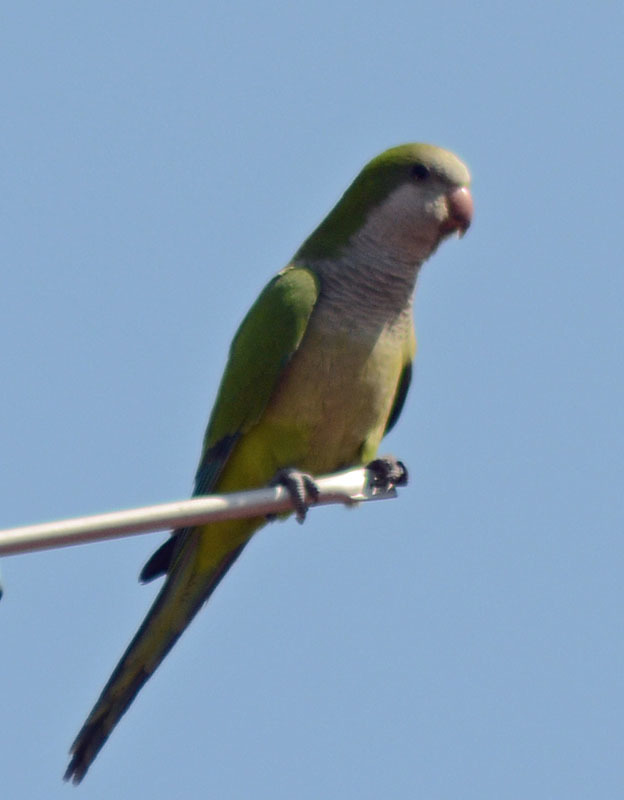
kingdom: Animalia
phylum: Chordata
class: Aves
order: Psittaciformes
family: Psittacidae
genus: Myiopsitta
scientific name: Myiopsitta monachus
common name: Monk parakeet
